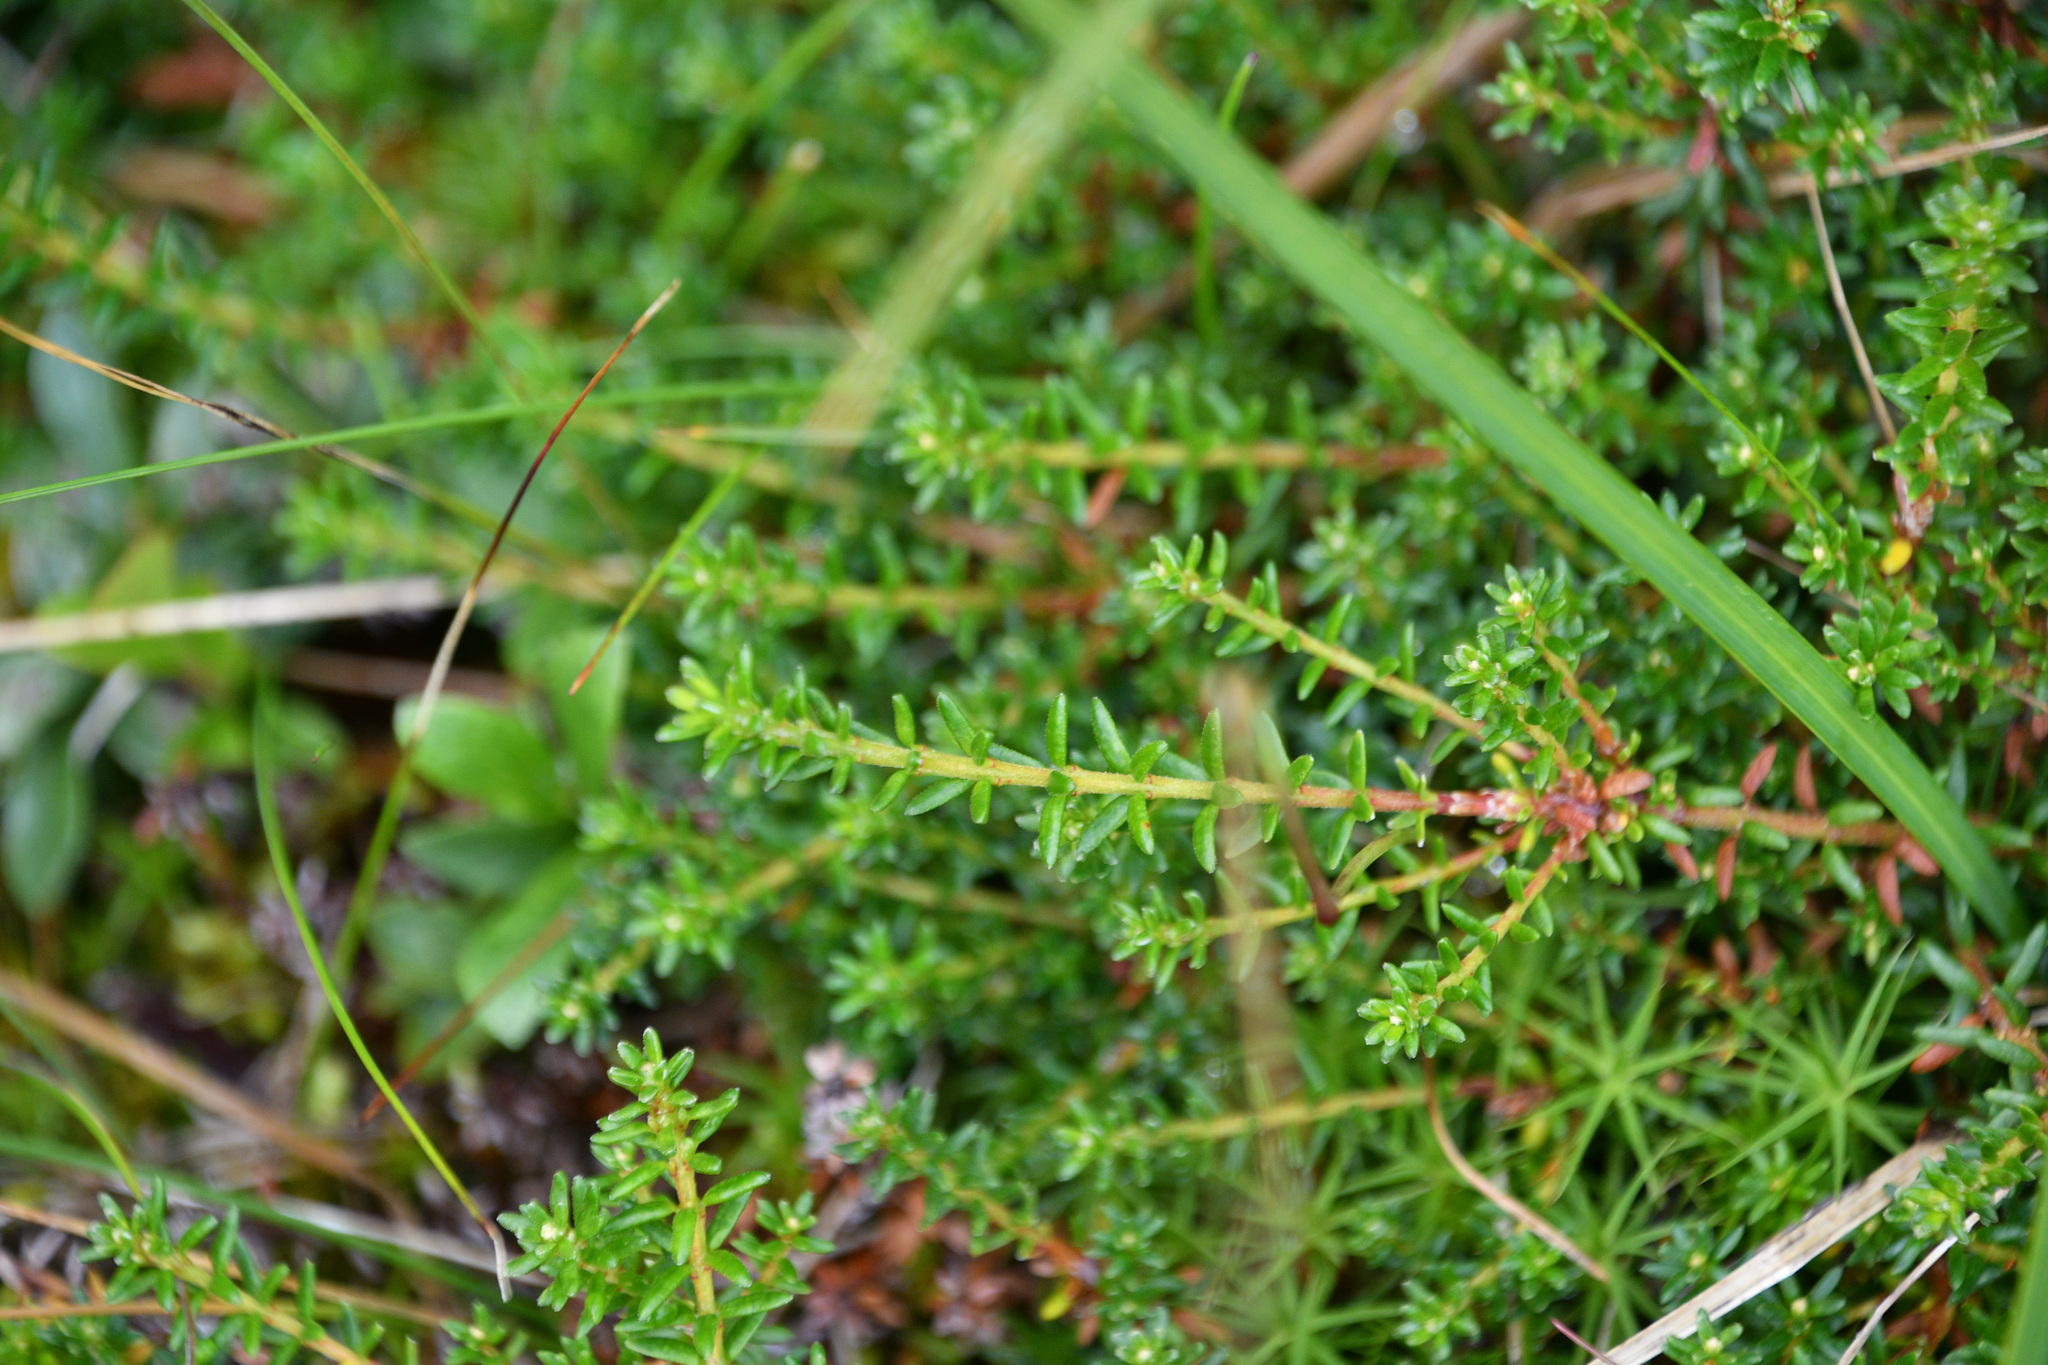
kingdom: Plantae
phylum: Tracheophyta
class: Magnoliopsida
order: Ericales
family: Ericaceae
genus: Empetrum
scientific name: Empetrum nigrum
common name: Black crowberry
